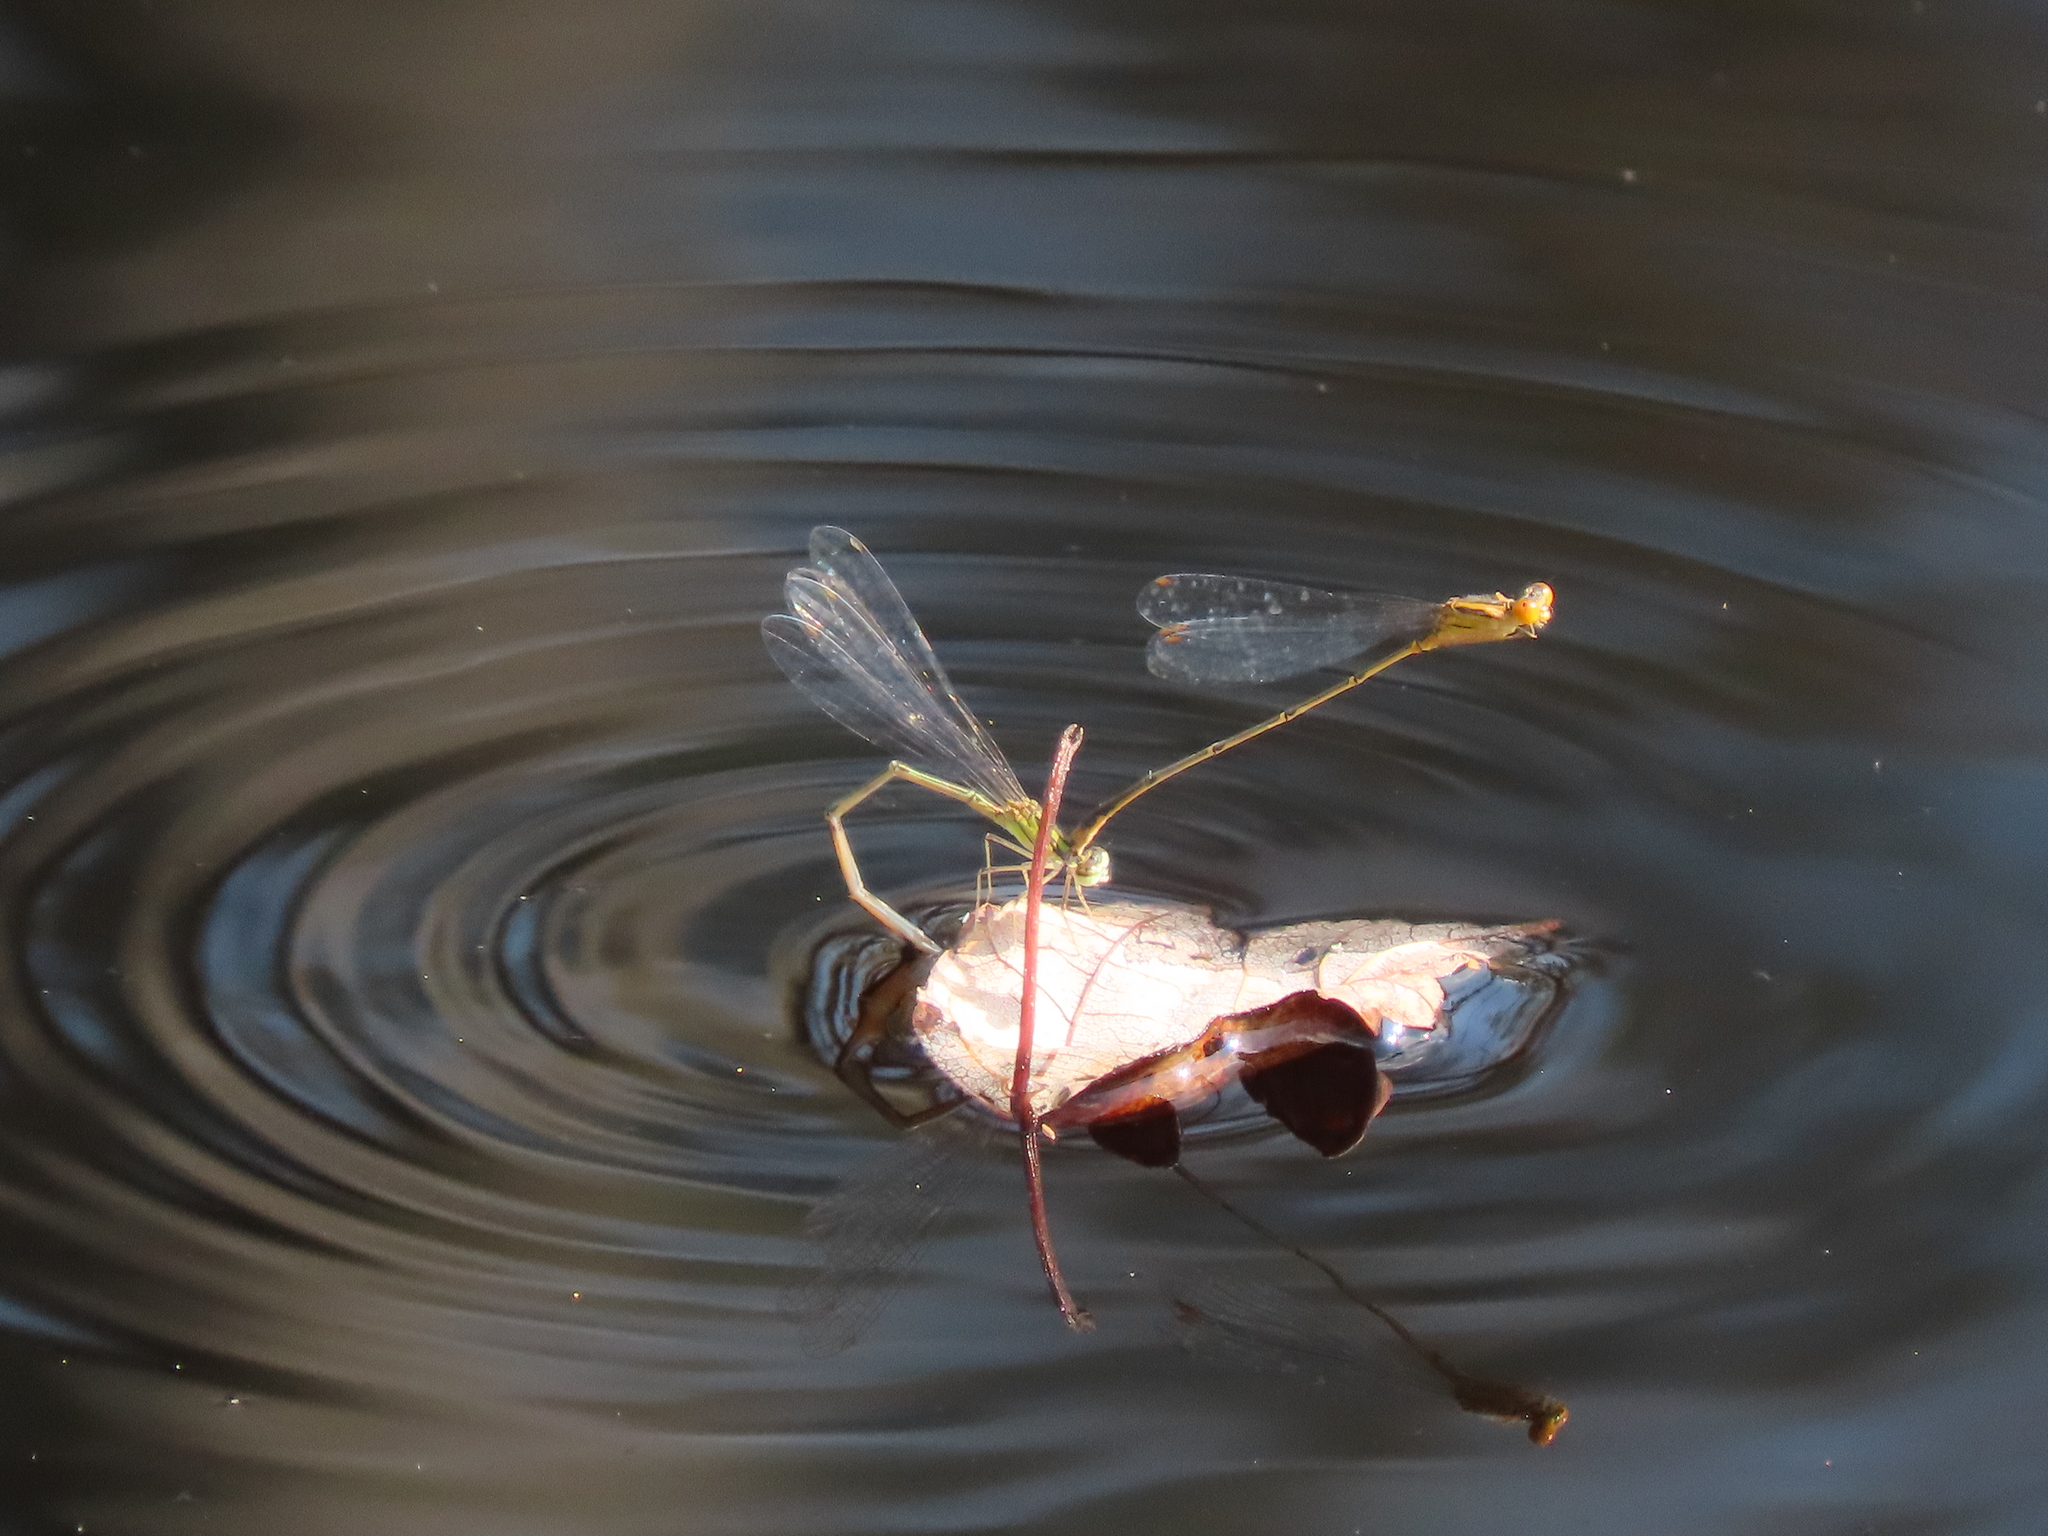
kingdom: Animalia
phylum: Arthropoda
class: Insecta
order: Odonata
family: Coenagrionidae
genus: Enallagma
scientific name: Enallagma signatum
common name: Orange bluet
